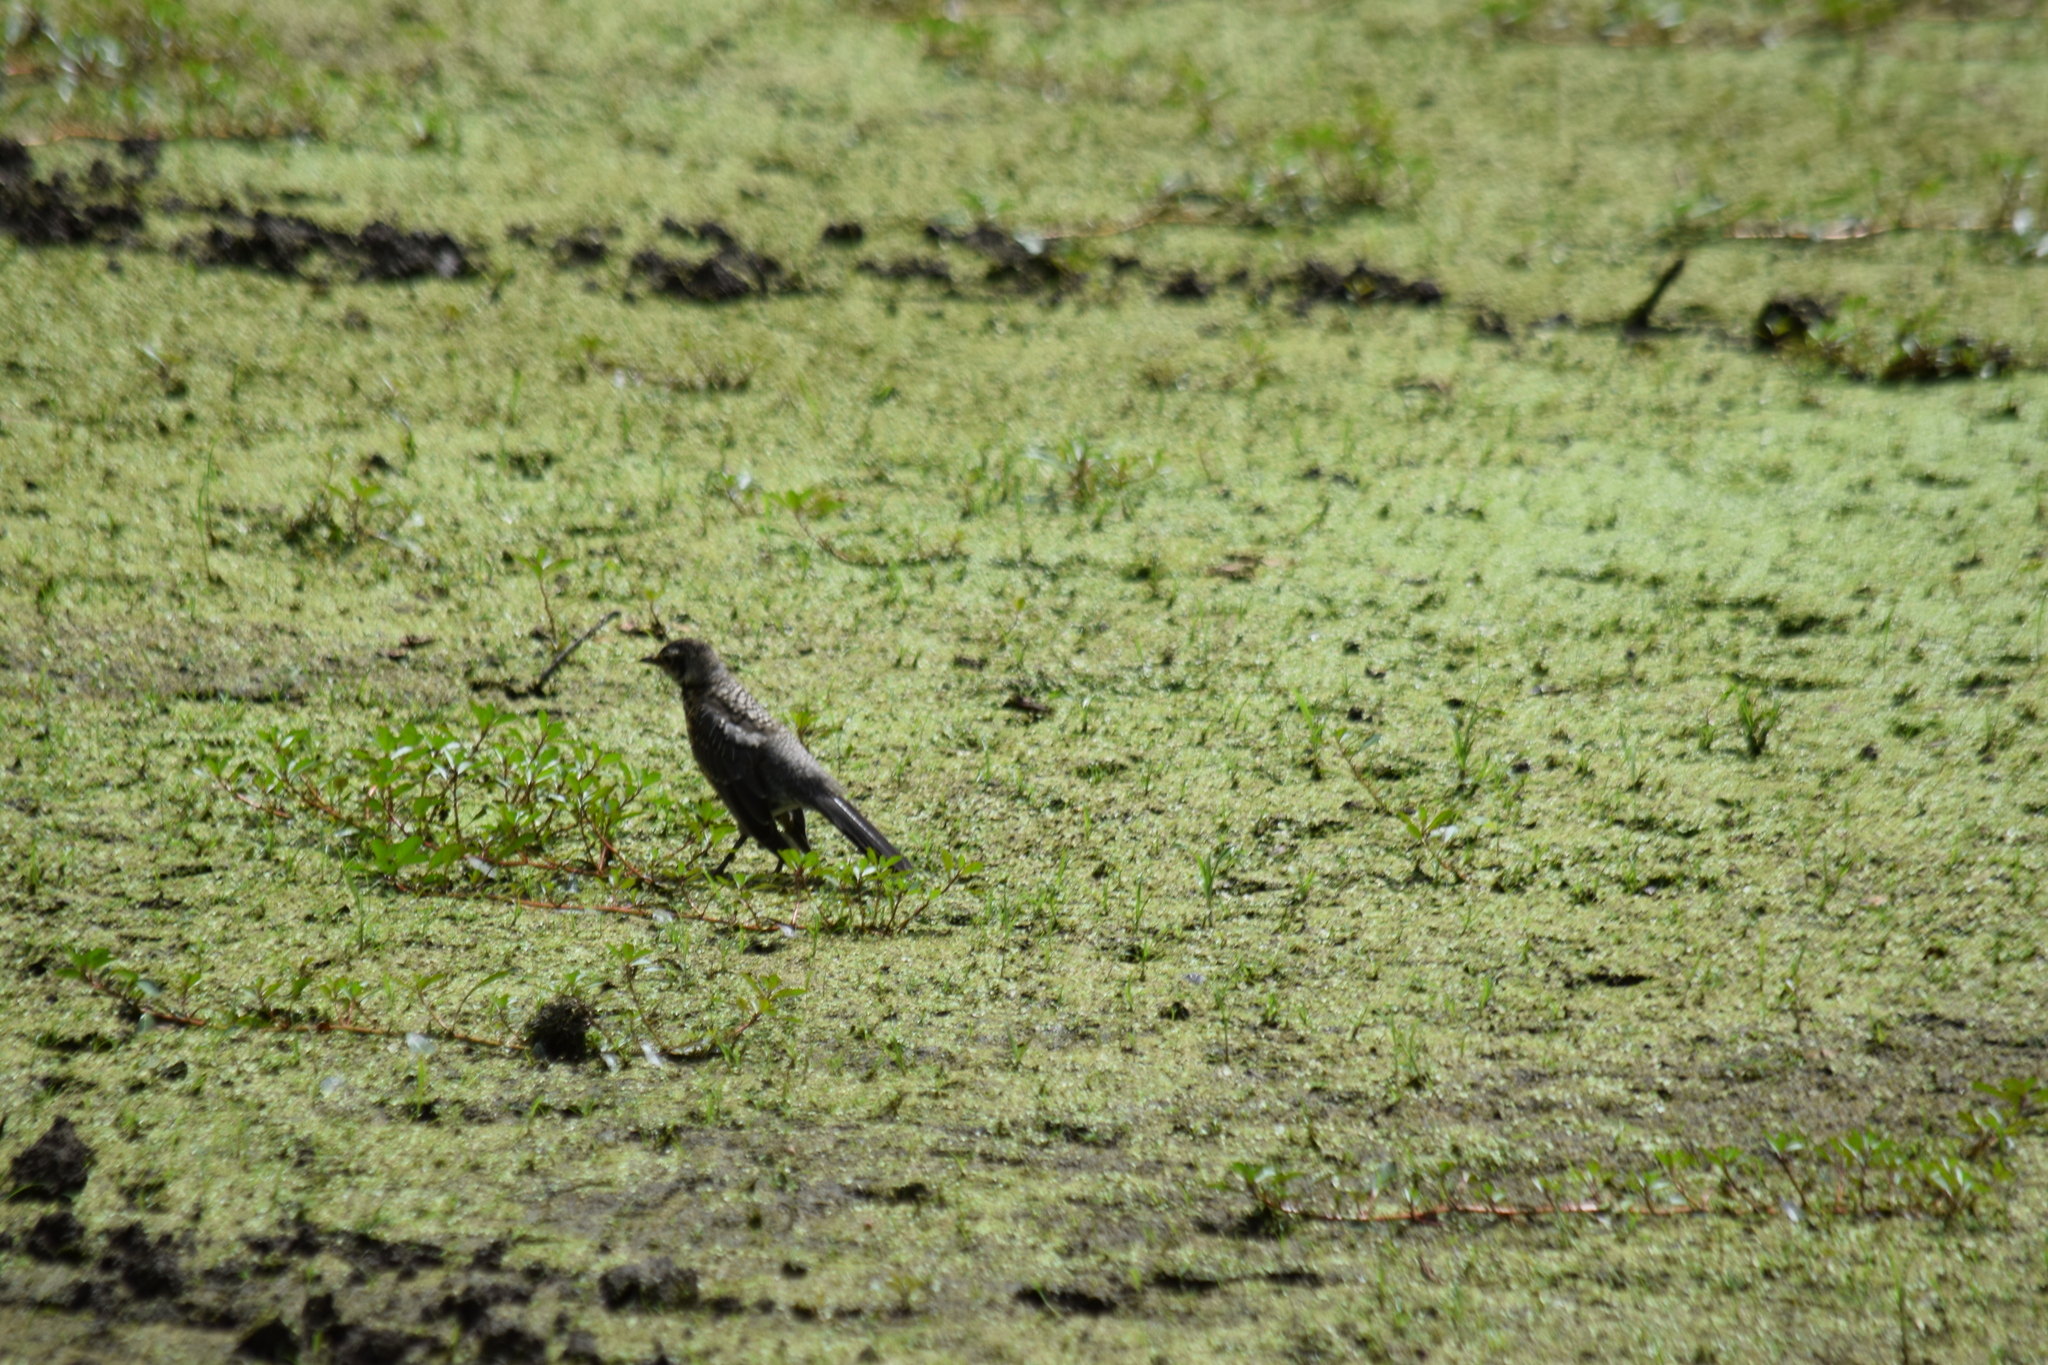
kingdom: Animalia
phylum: Chordata
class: Aves
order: Passeriformes
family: Turdidae
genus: Turdus
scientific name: Turdus migratorius
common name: American robin
